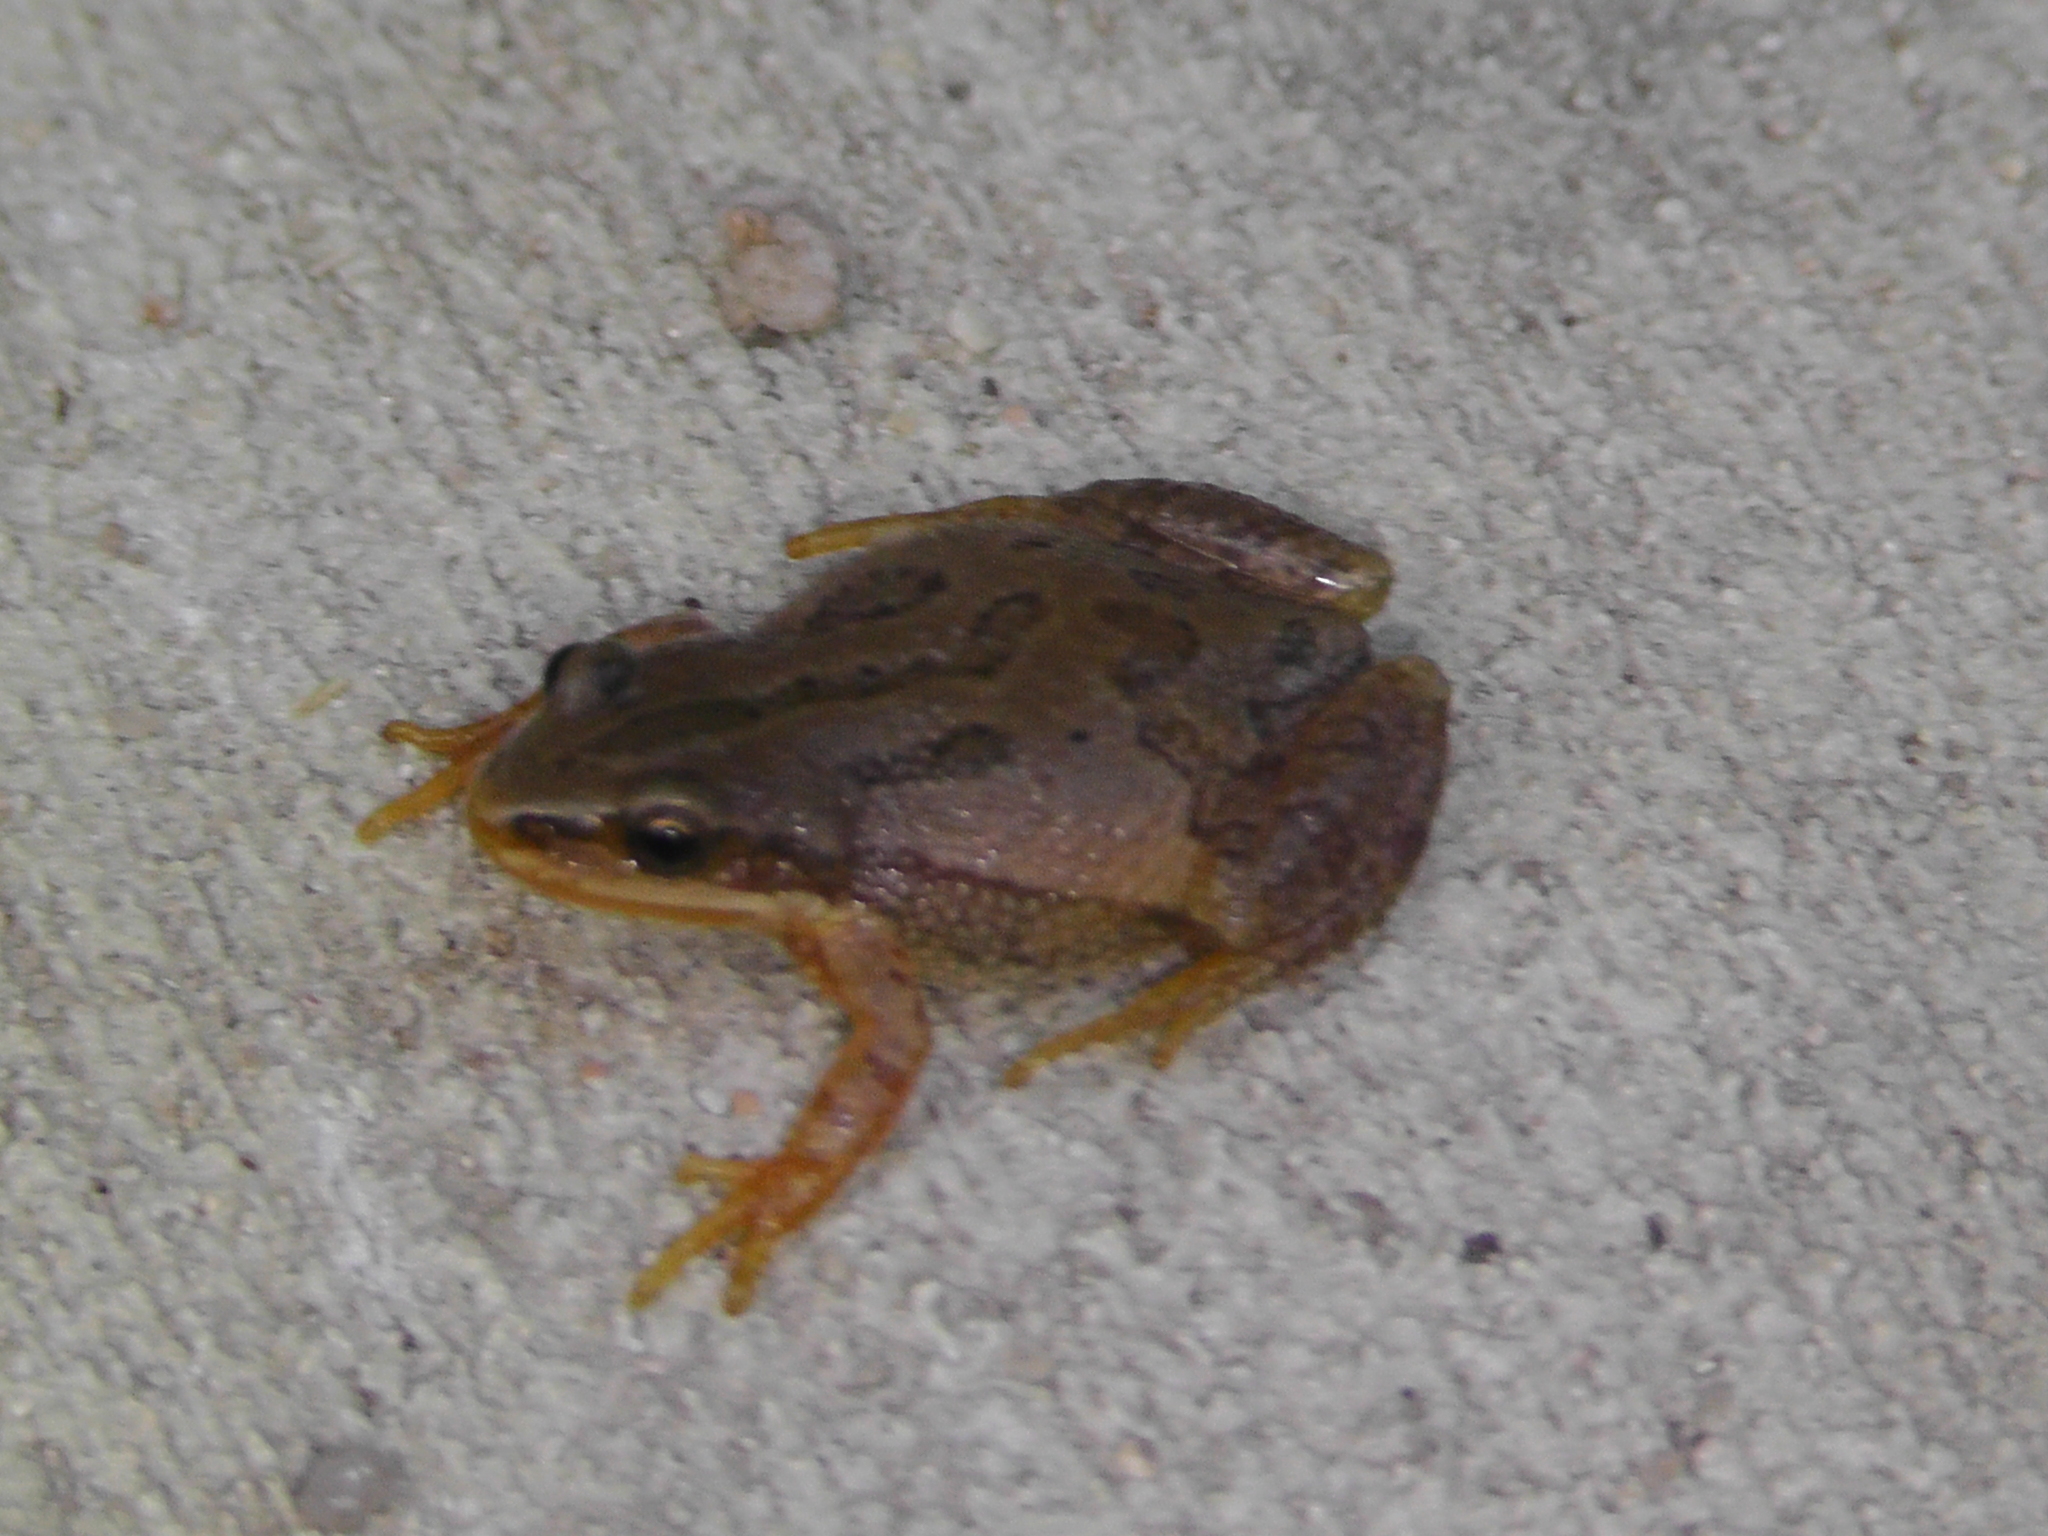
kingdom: Animalia
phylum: Chordata
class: Amphibia
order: Anura
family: Hylidae
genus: Pseudacris
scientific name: Pseudacris maculata
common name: Boreal chorus frog
